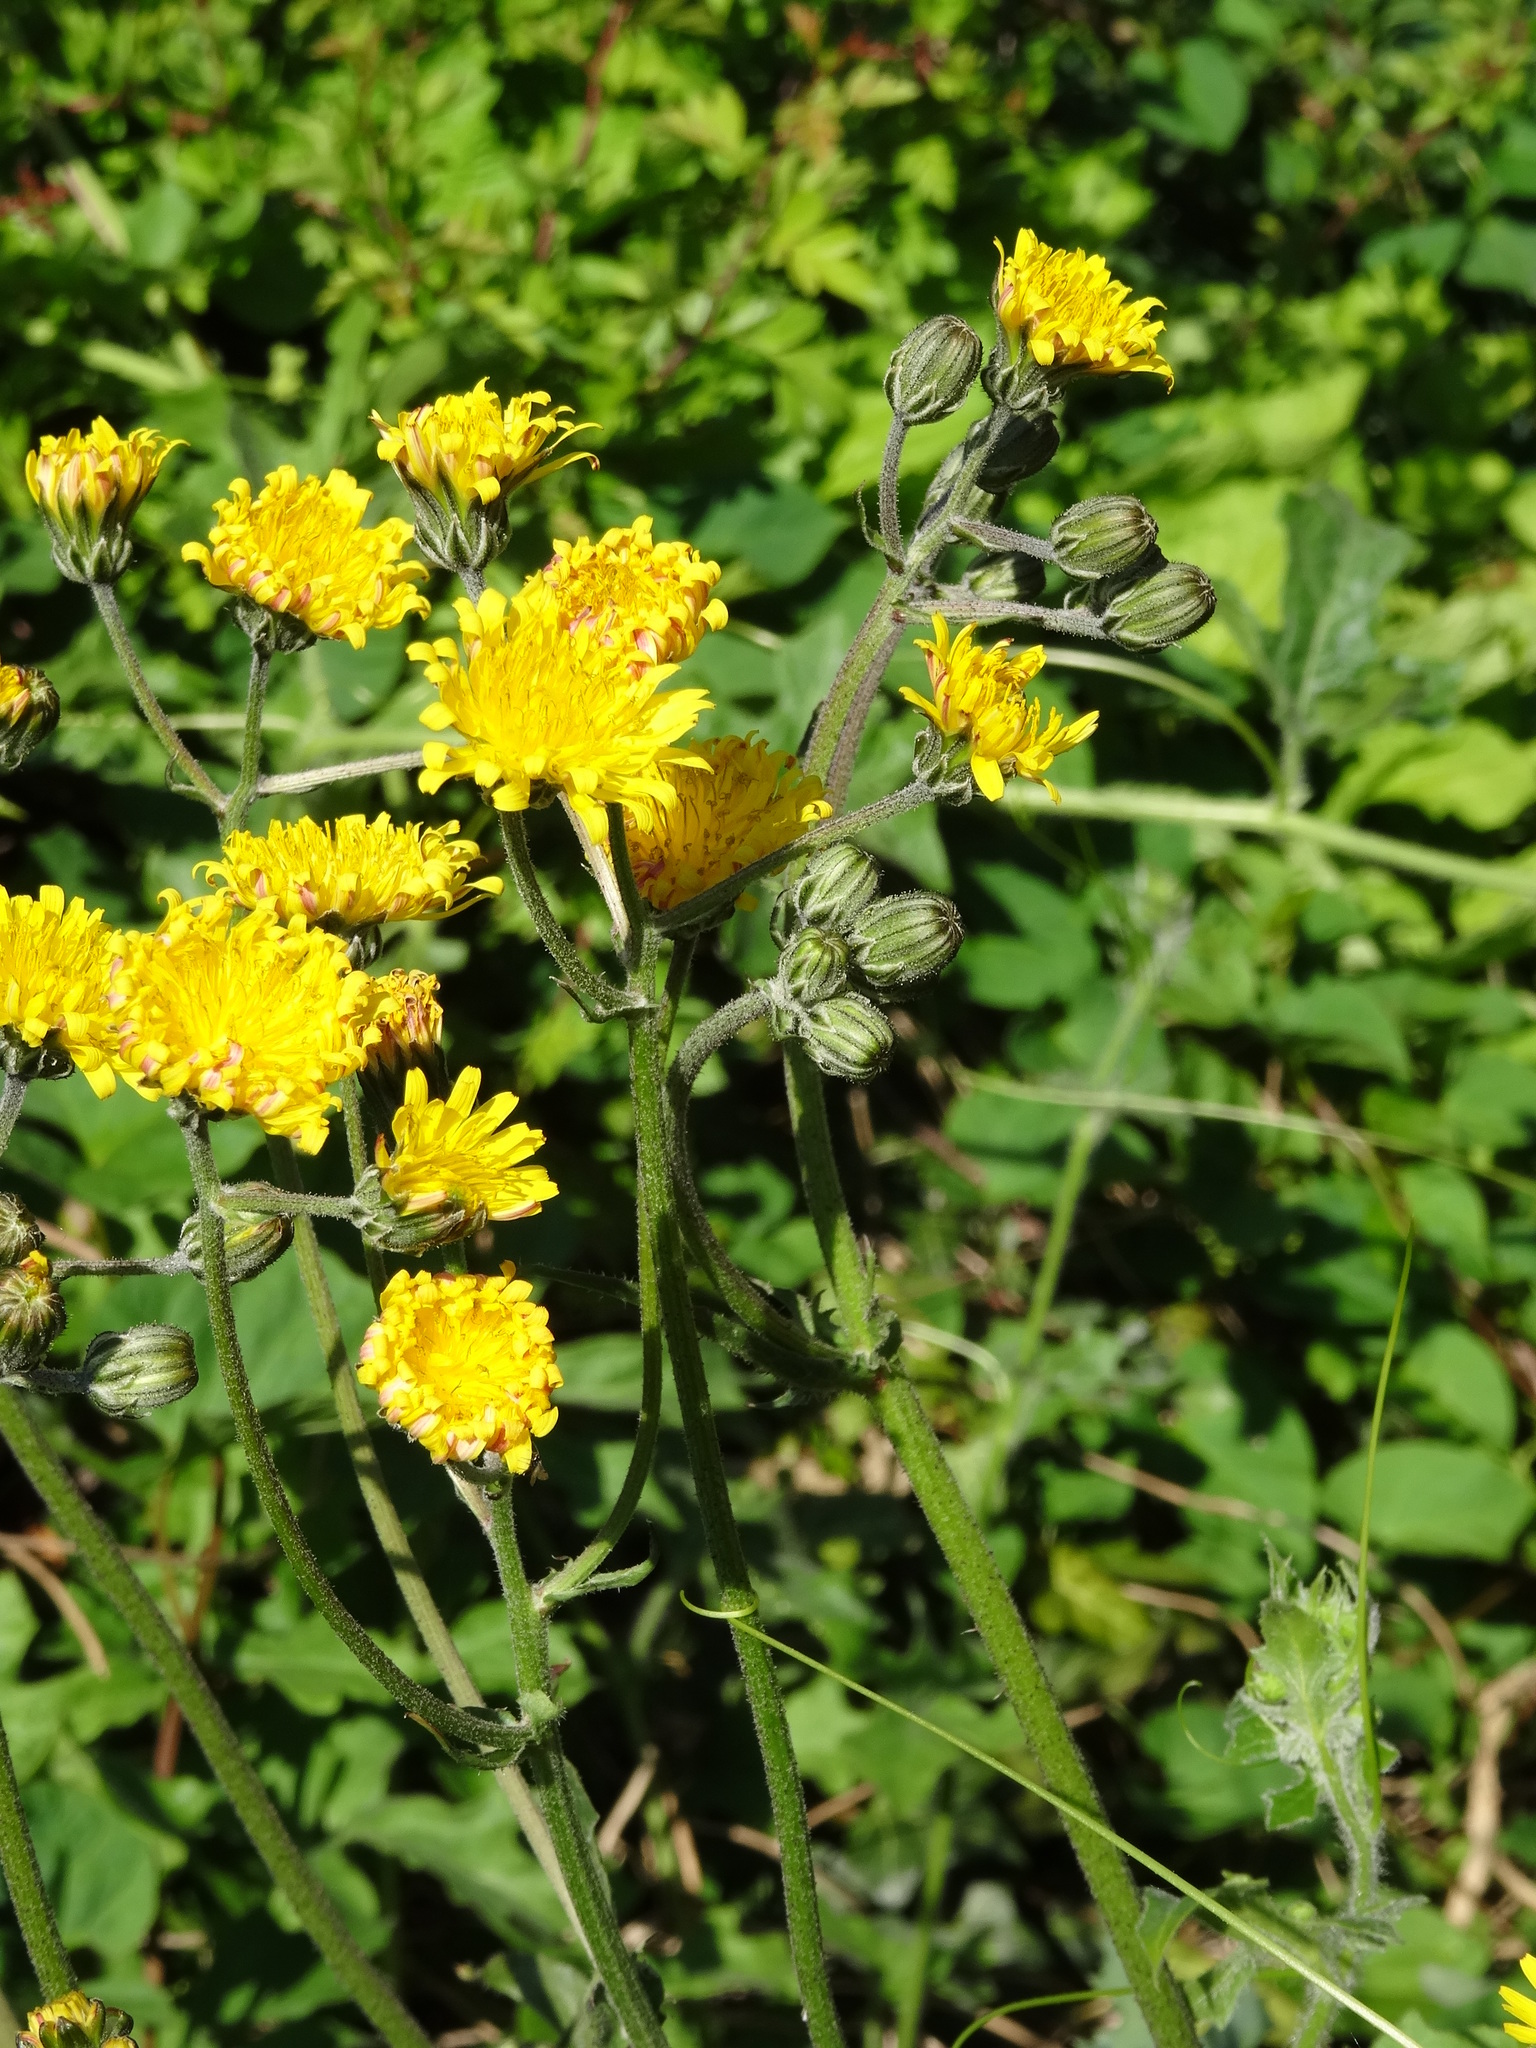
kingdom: Plantae
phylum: Tracheophyta
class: Magnoliopsida
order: Asterales
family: Asteraceae
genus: Crepis
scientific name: Crepis vesicaria
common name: Beaked hawksbeard
